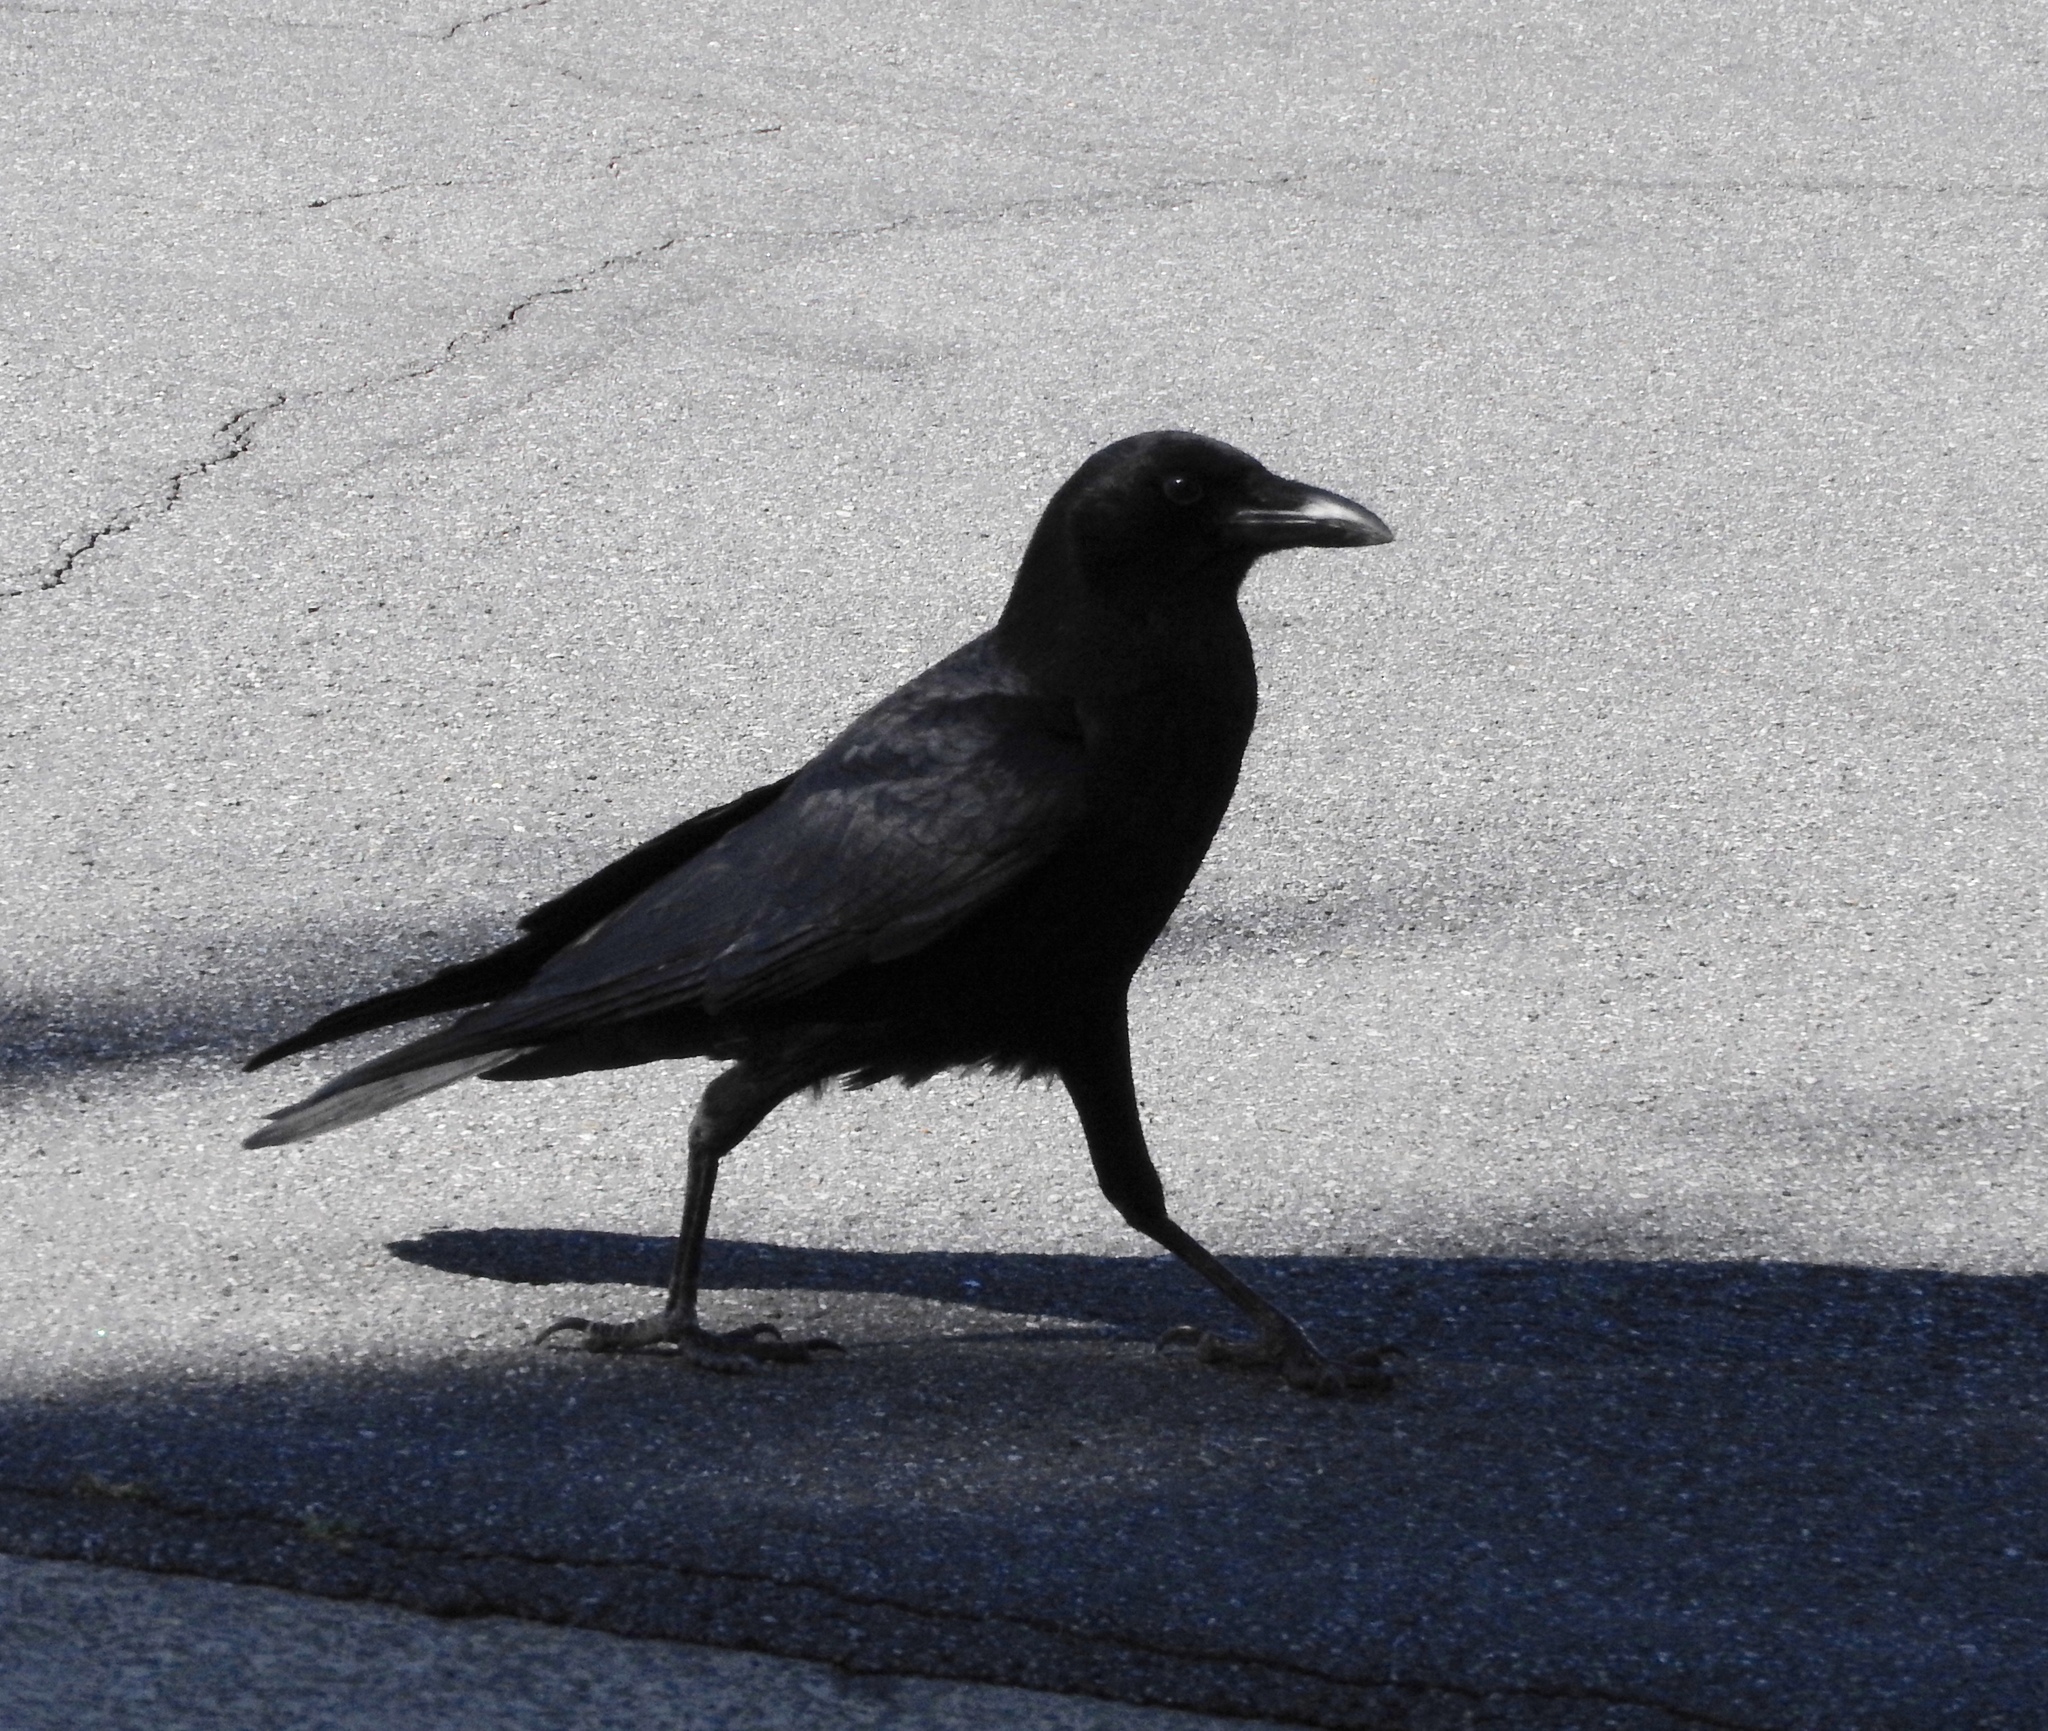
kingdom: Animalia
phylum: Chordata
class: Aves
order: Passeriformes
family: Corvidae
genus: Corvus
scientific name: Corvus brachyrhynchos
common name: American crow
